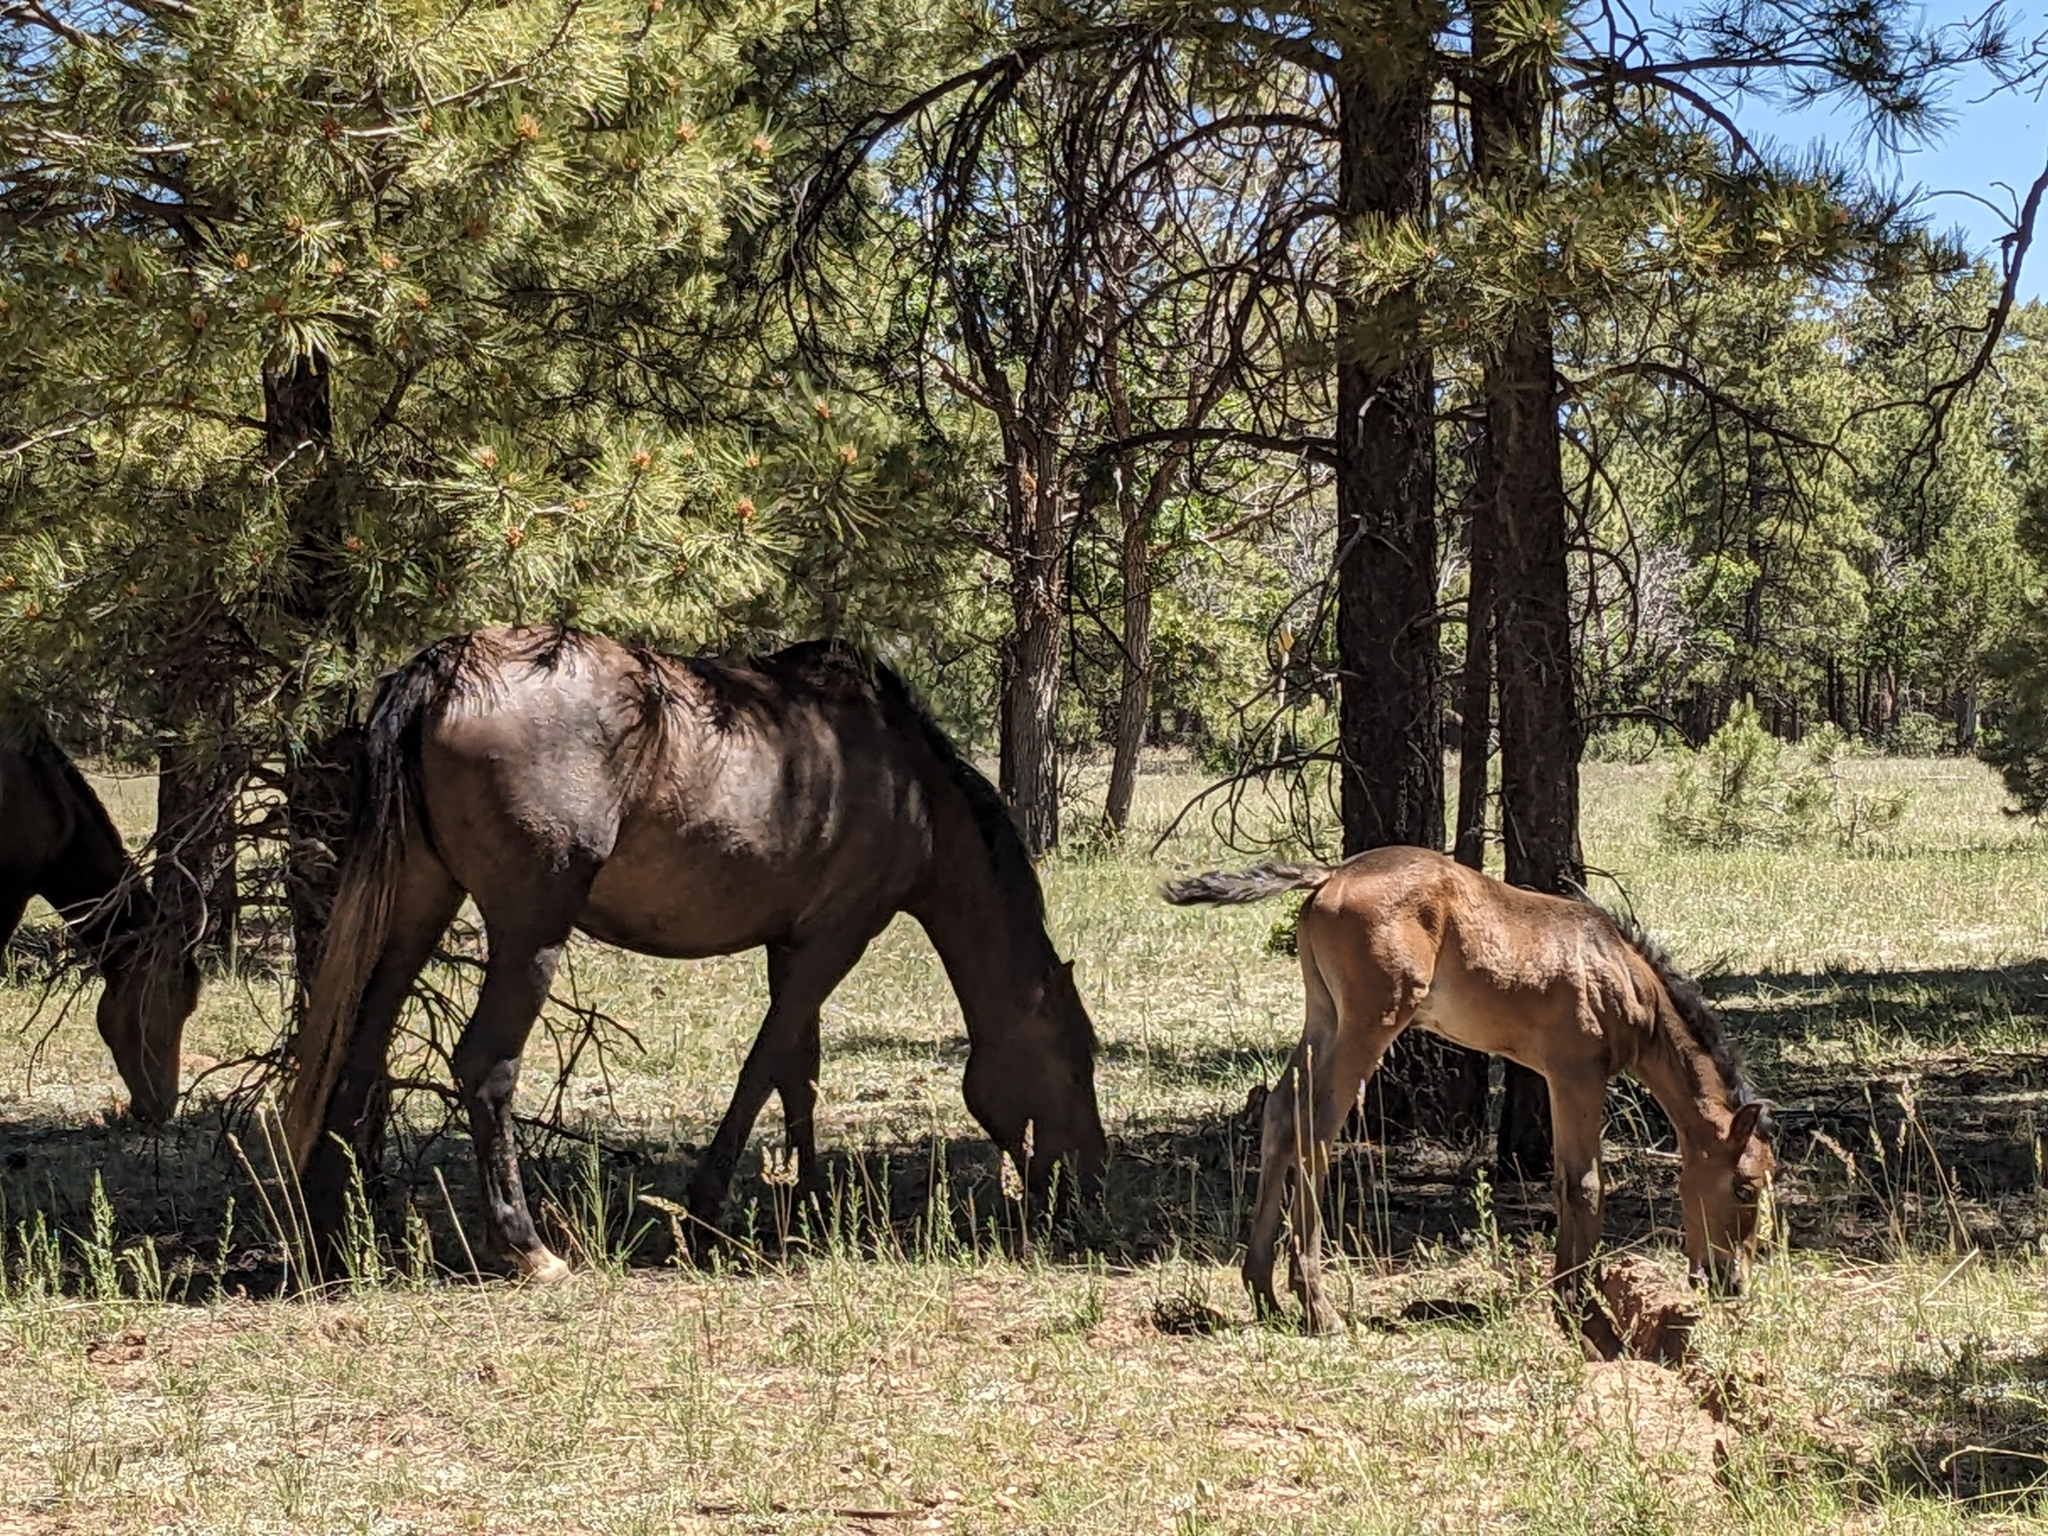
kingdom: Animalia
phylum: Chordata
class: Mammalia
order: Perissodactyla
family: Equidae
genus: Equus
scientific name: Equus caballus
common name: Horse
